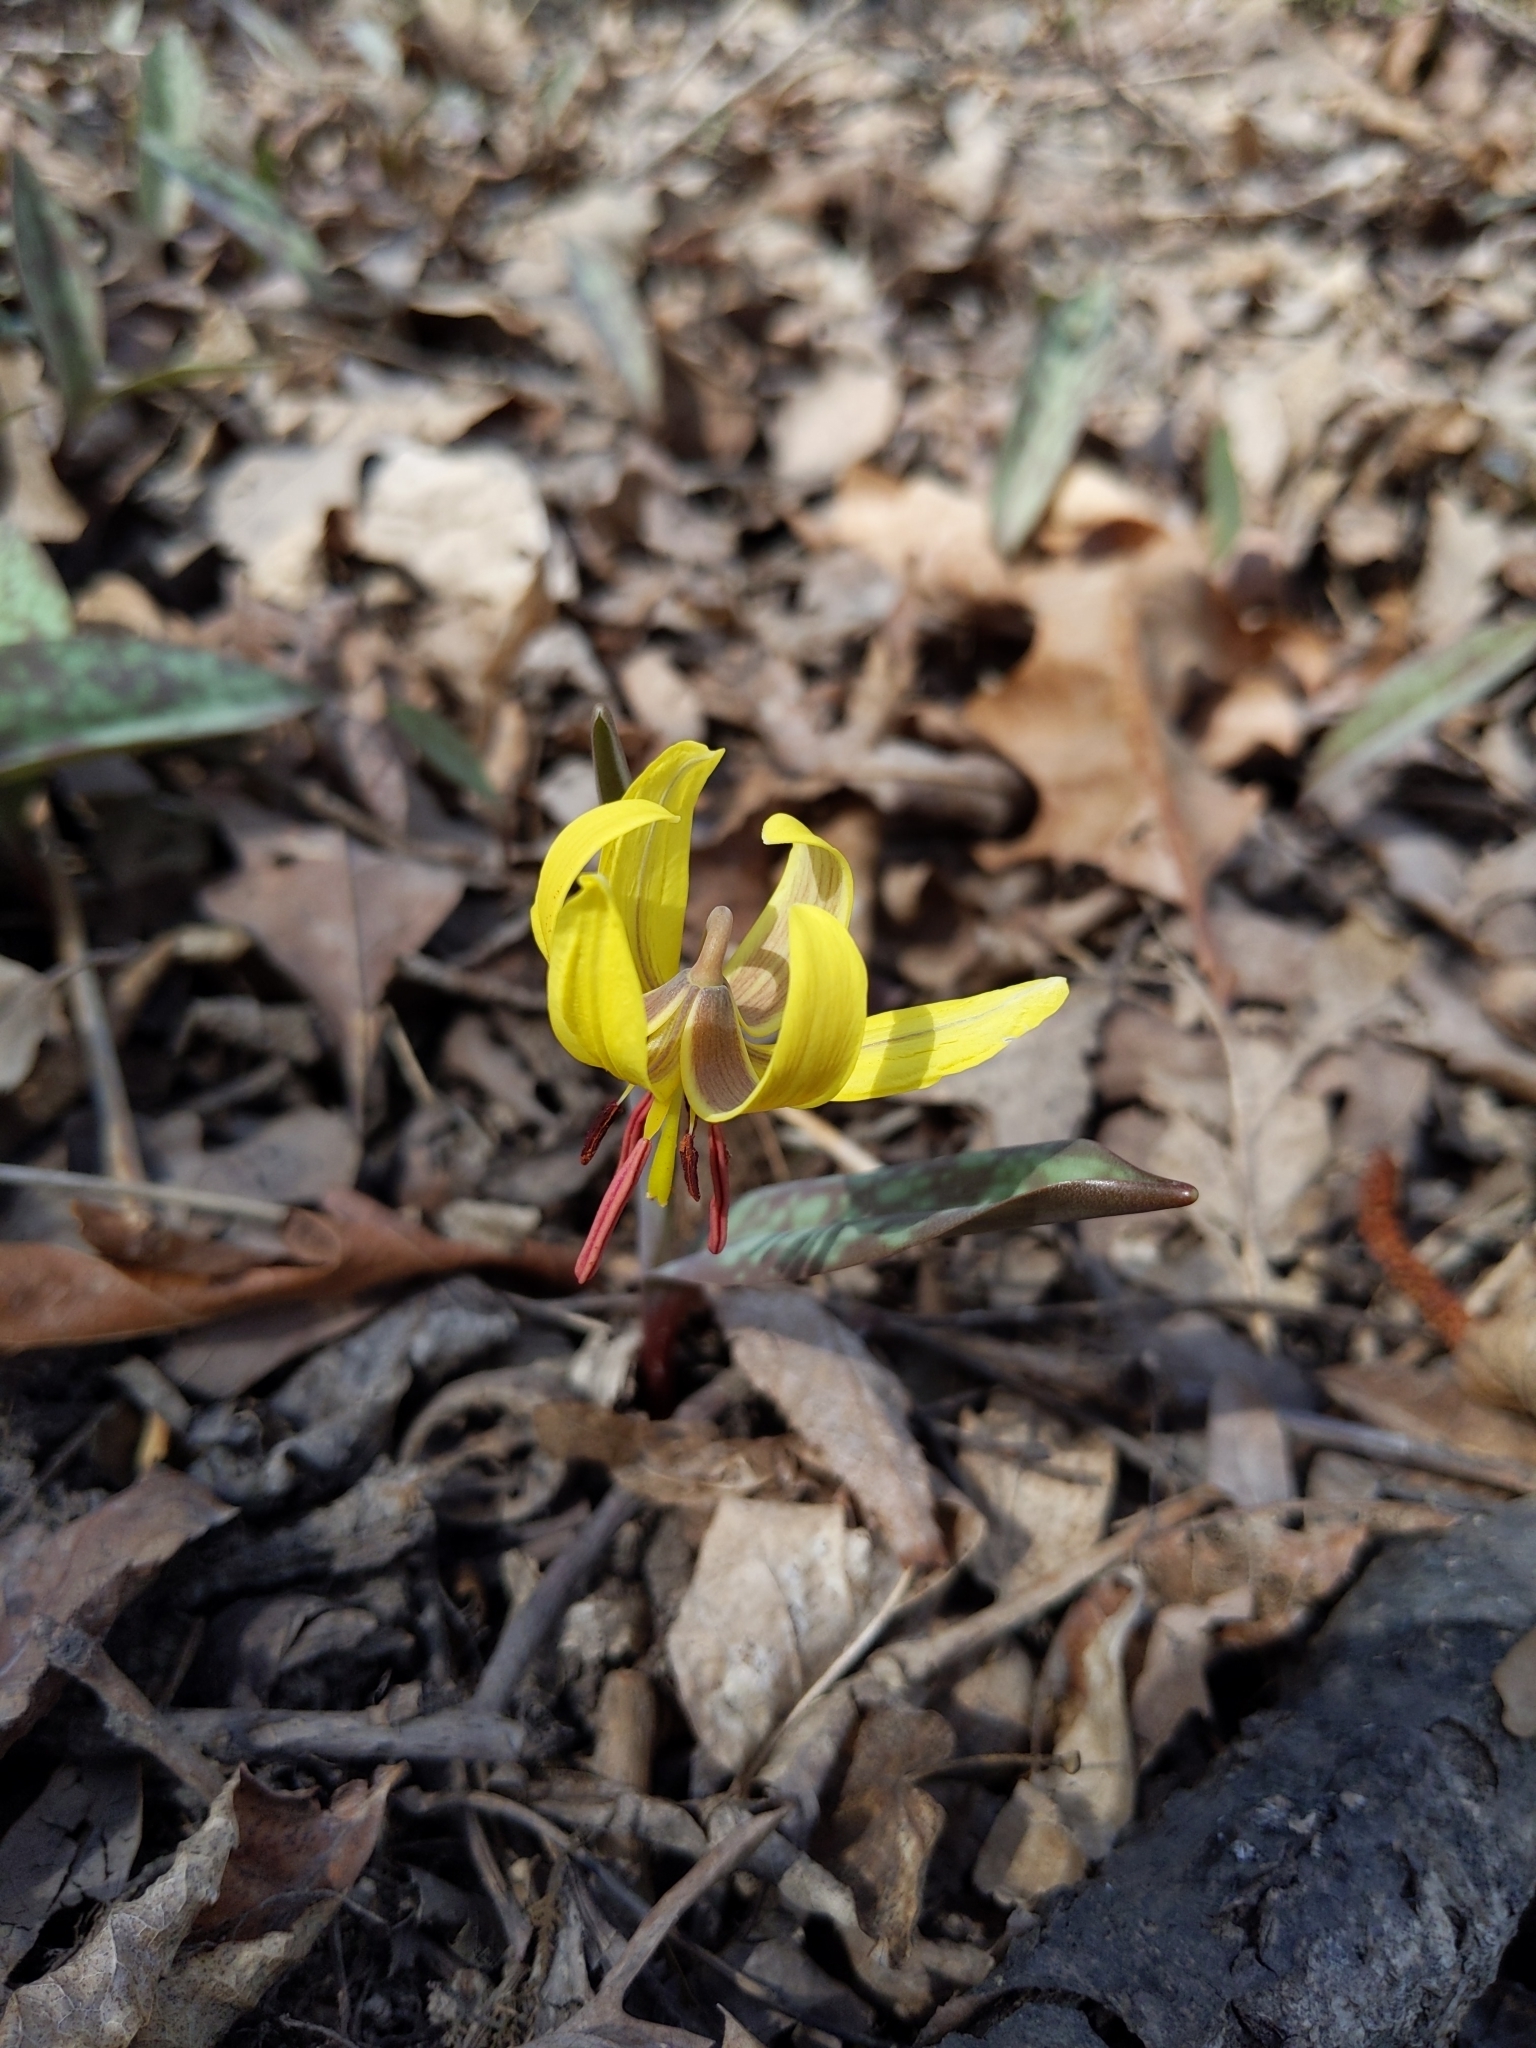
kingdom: Plantae
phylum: Tracheophyta
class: Liliopsida
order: Liliales
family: Liliaceae
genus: Erythronium
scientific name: Erythronium americanum
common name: Yellow adder's-tongue
